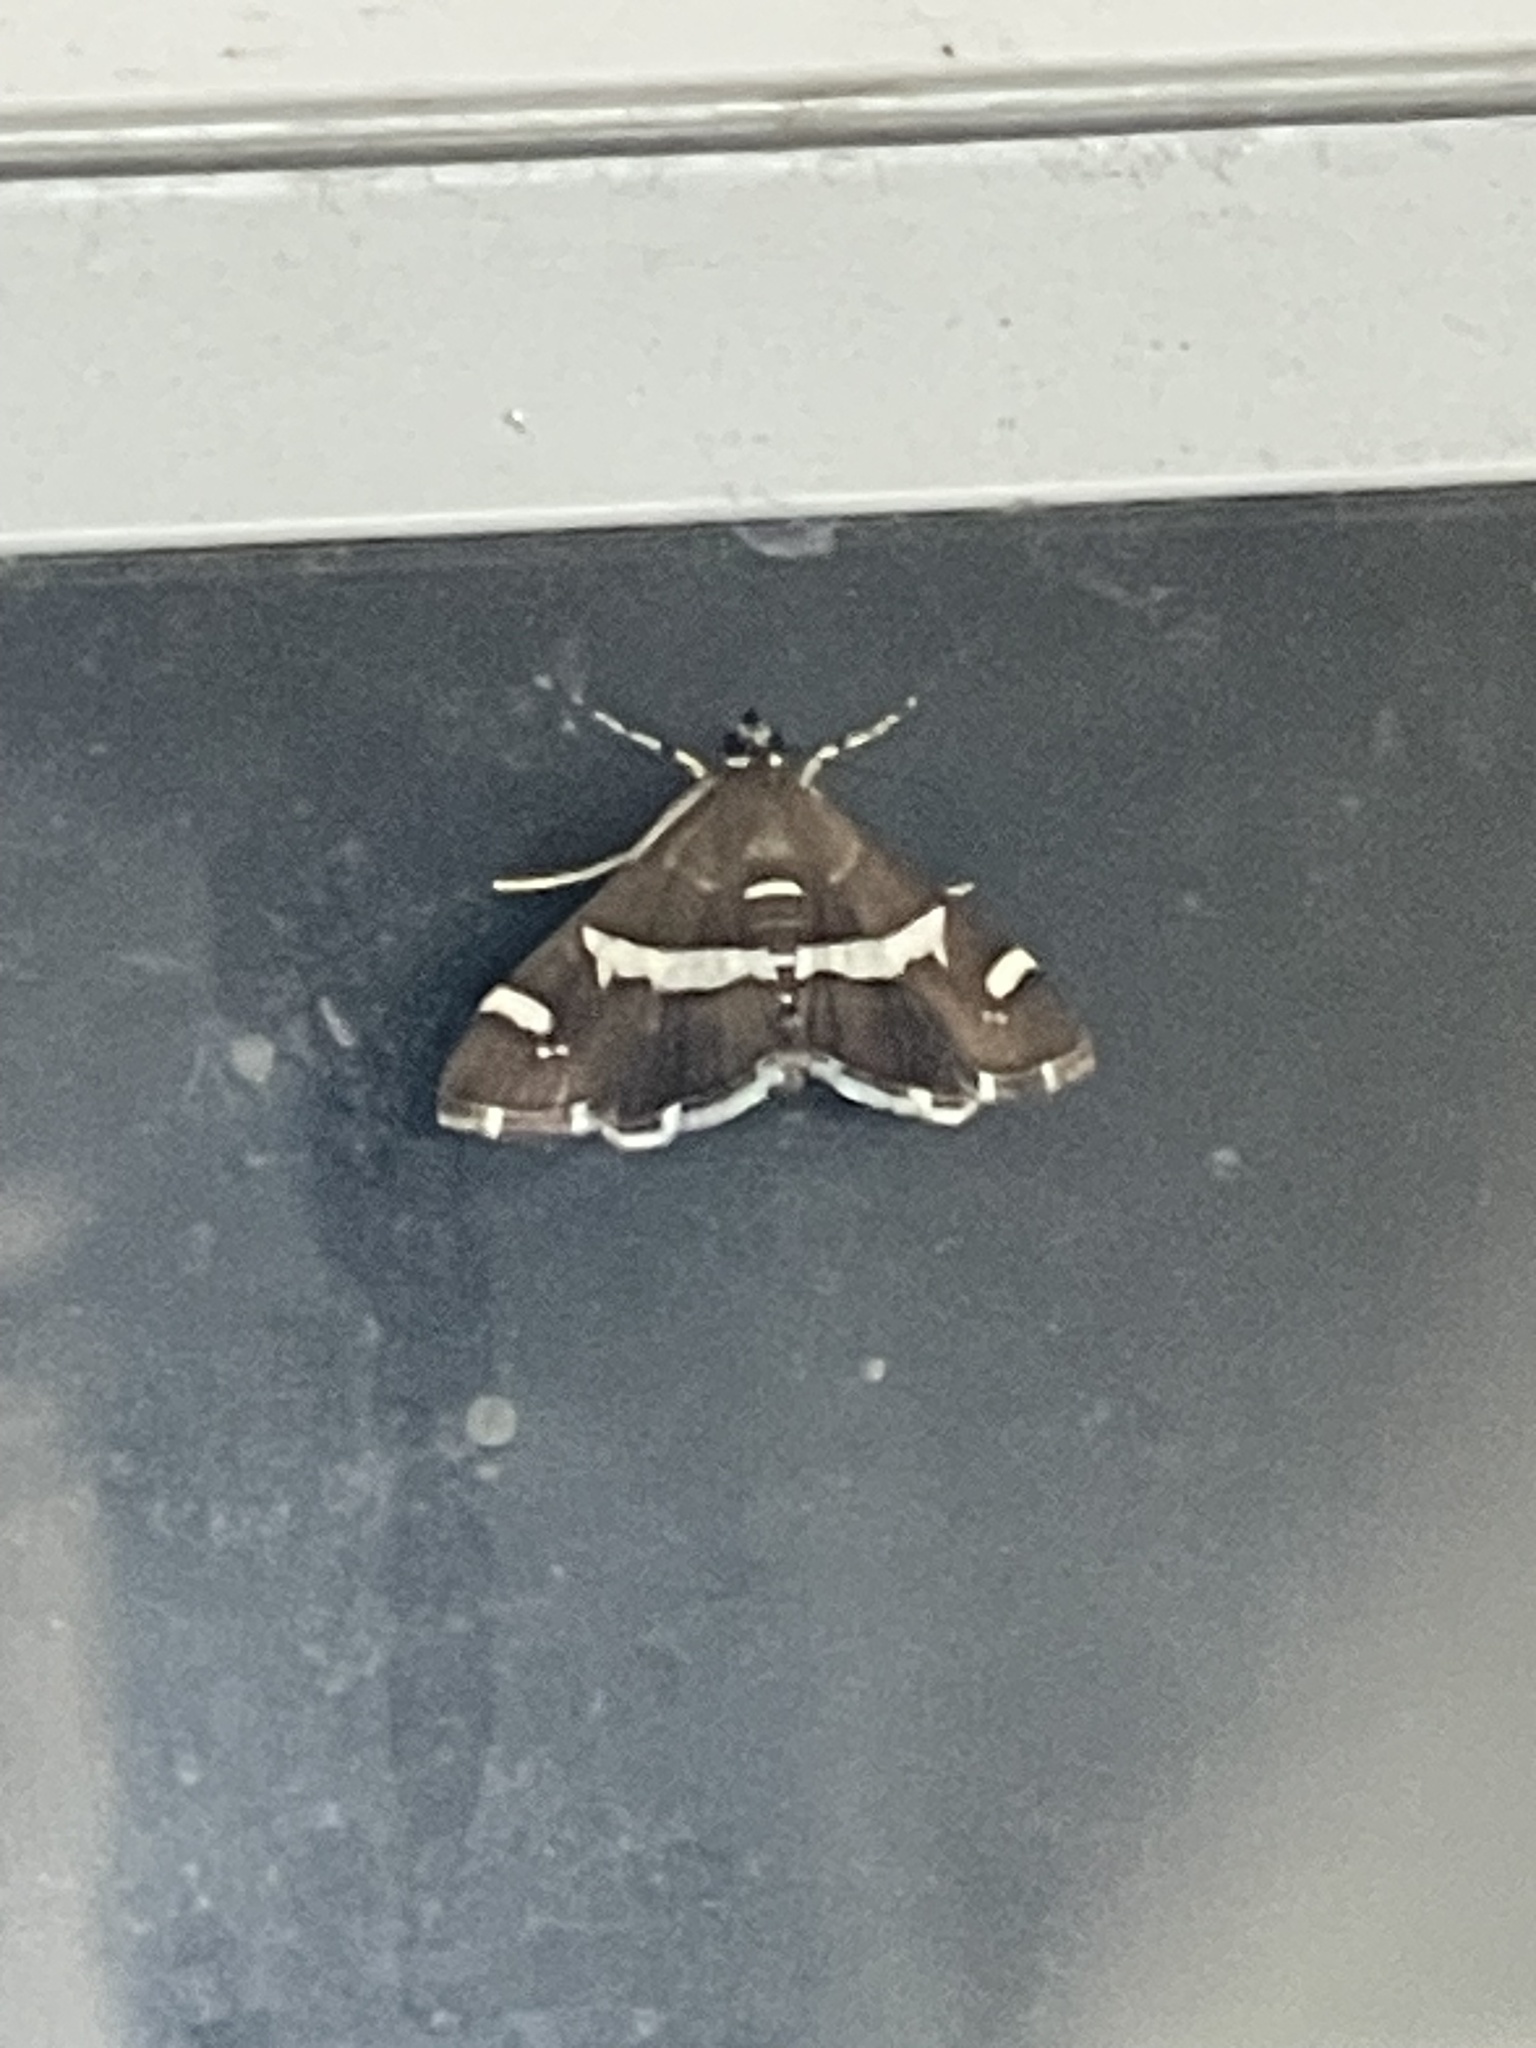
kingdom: Animalia
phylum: Arthropoda
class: Insecta
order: Lepidoptera
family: Crambidae
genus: Spoladea
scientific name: Spoladea recurvalis
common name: Beet webworm moth
